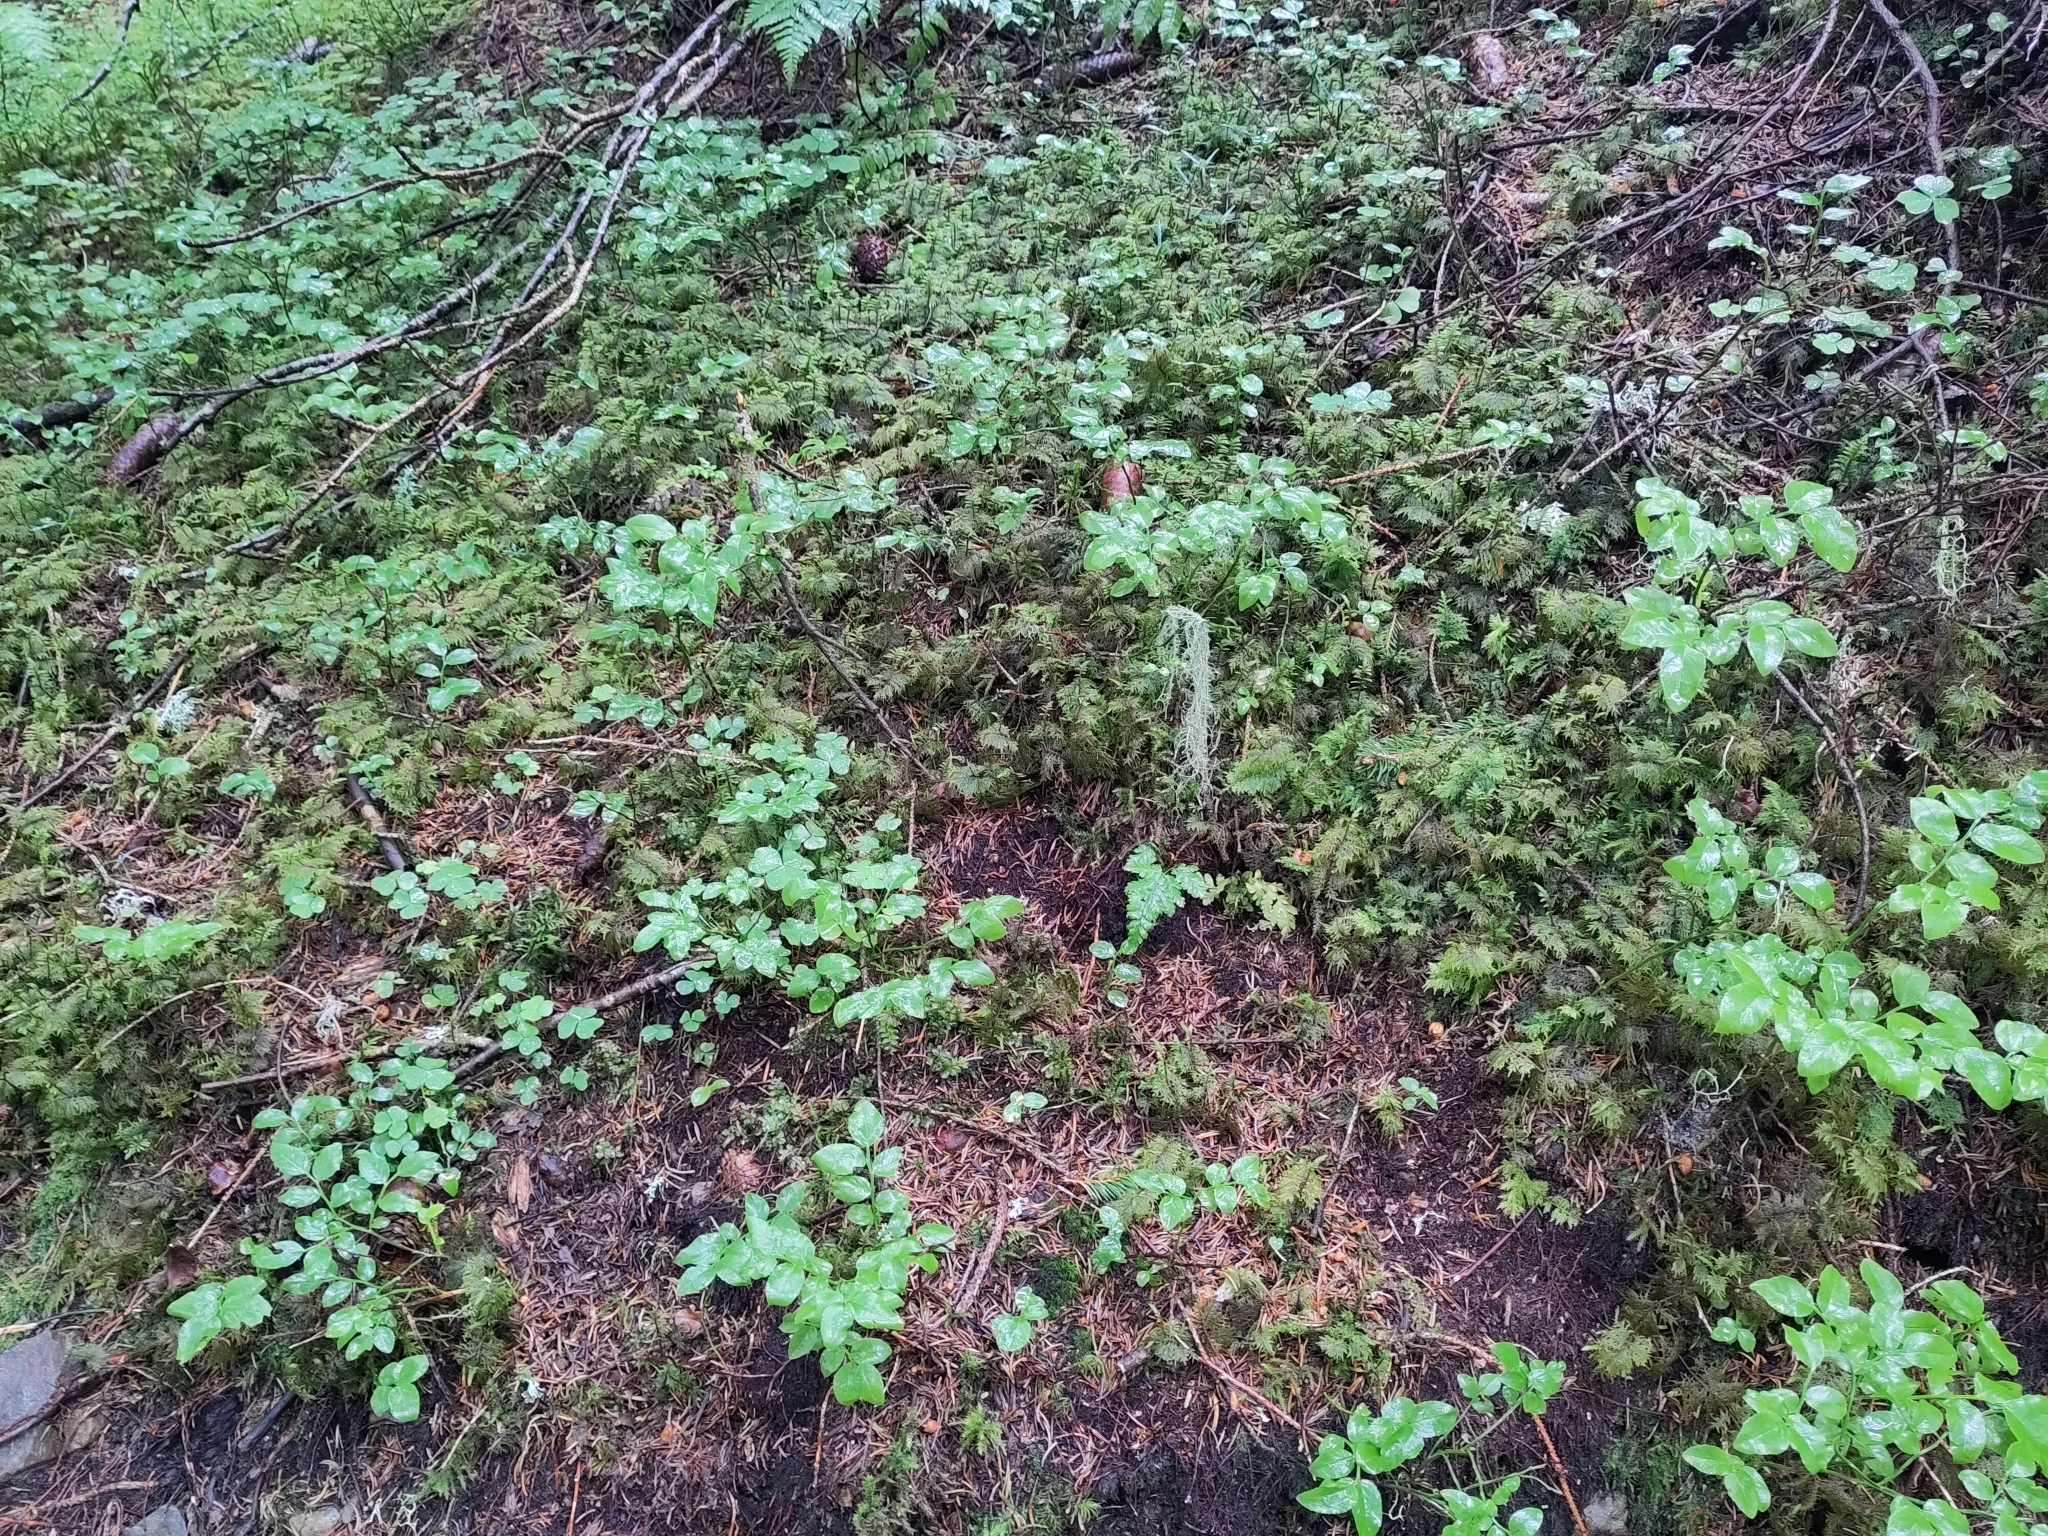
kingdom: Plantae
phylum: Tracheophyta
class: Magnoliopsida
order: Ericales
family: Ericaceae
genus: Vaccinium
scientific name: Vaccinium myrtillus
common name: Bilberry
